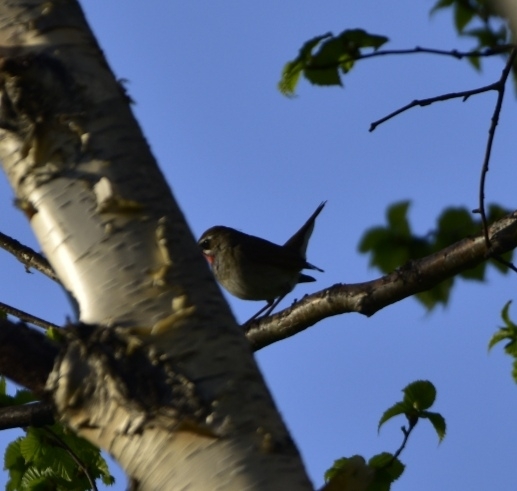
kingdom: Animalia
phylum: Chordata
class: Aves
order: Passeriformes
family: Muscicapidae
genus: Luscinia
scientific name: Luscinia calliope
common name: Siberian rubythroat
